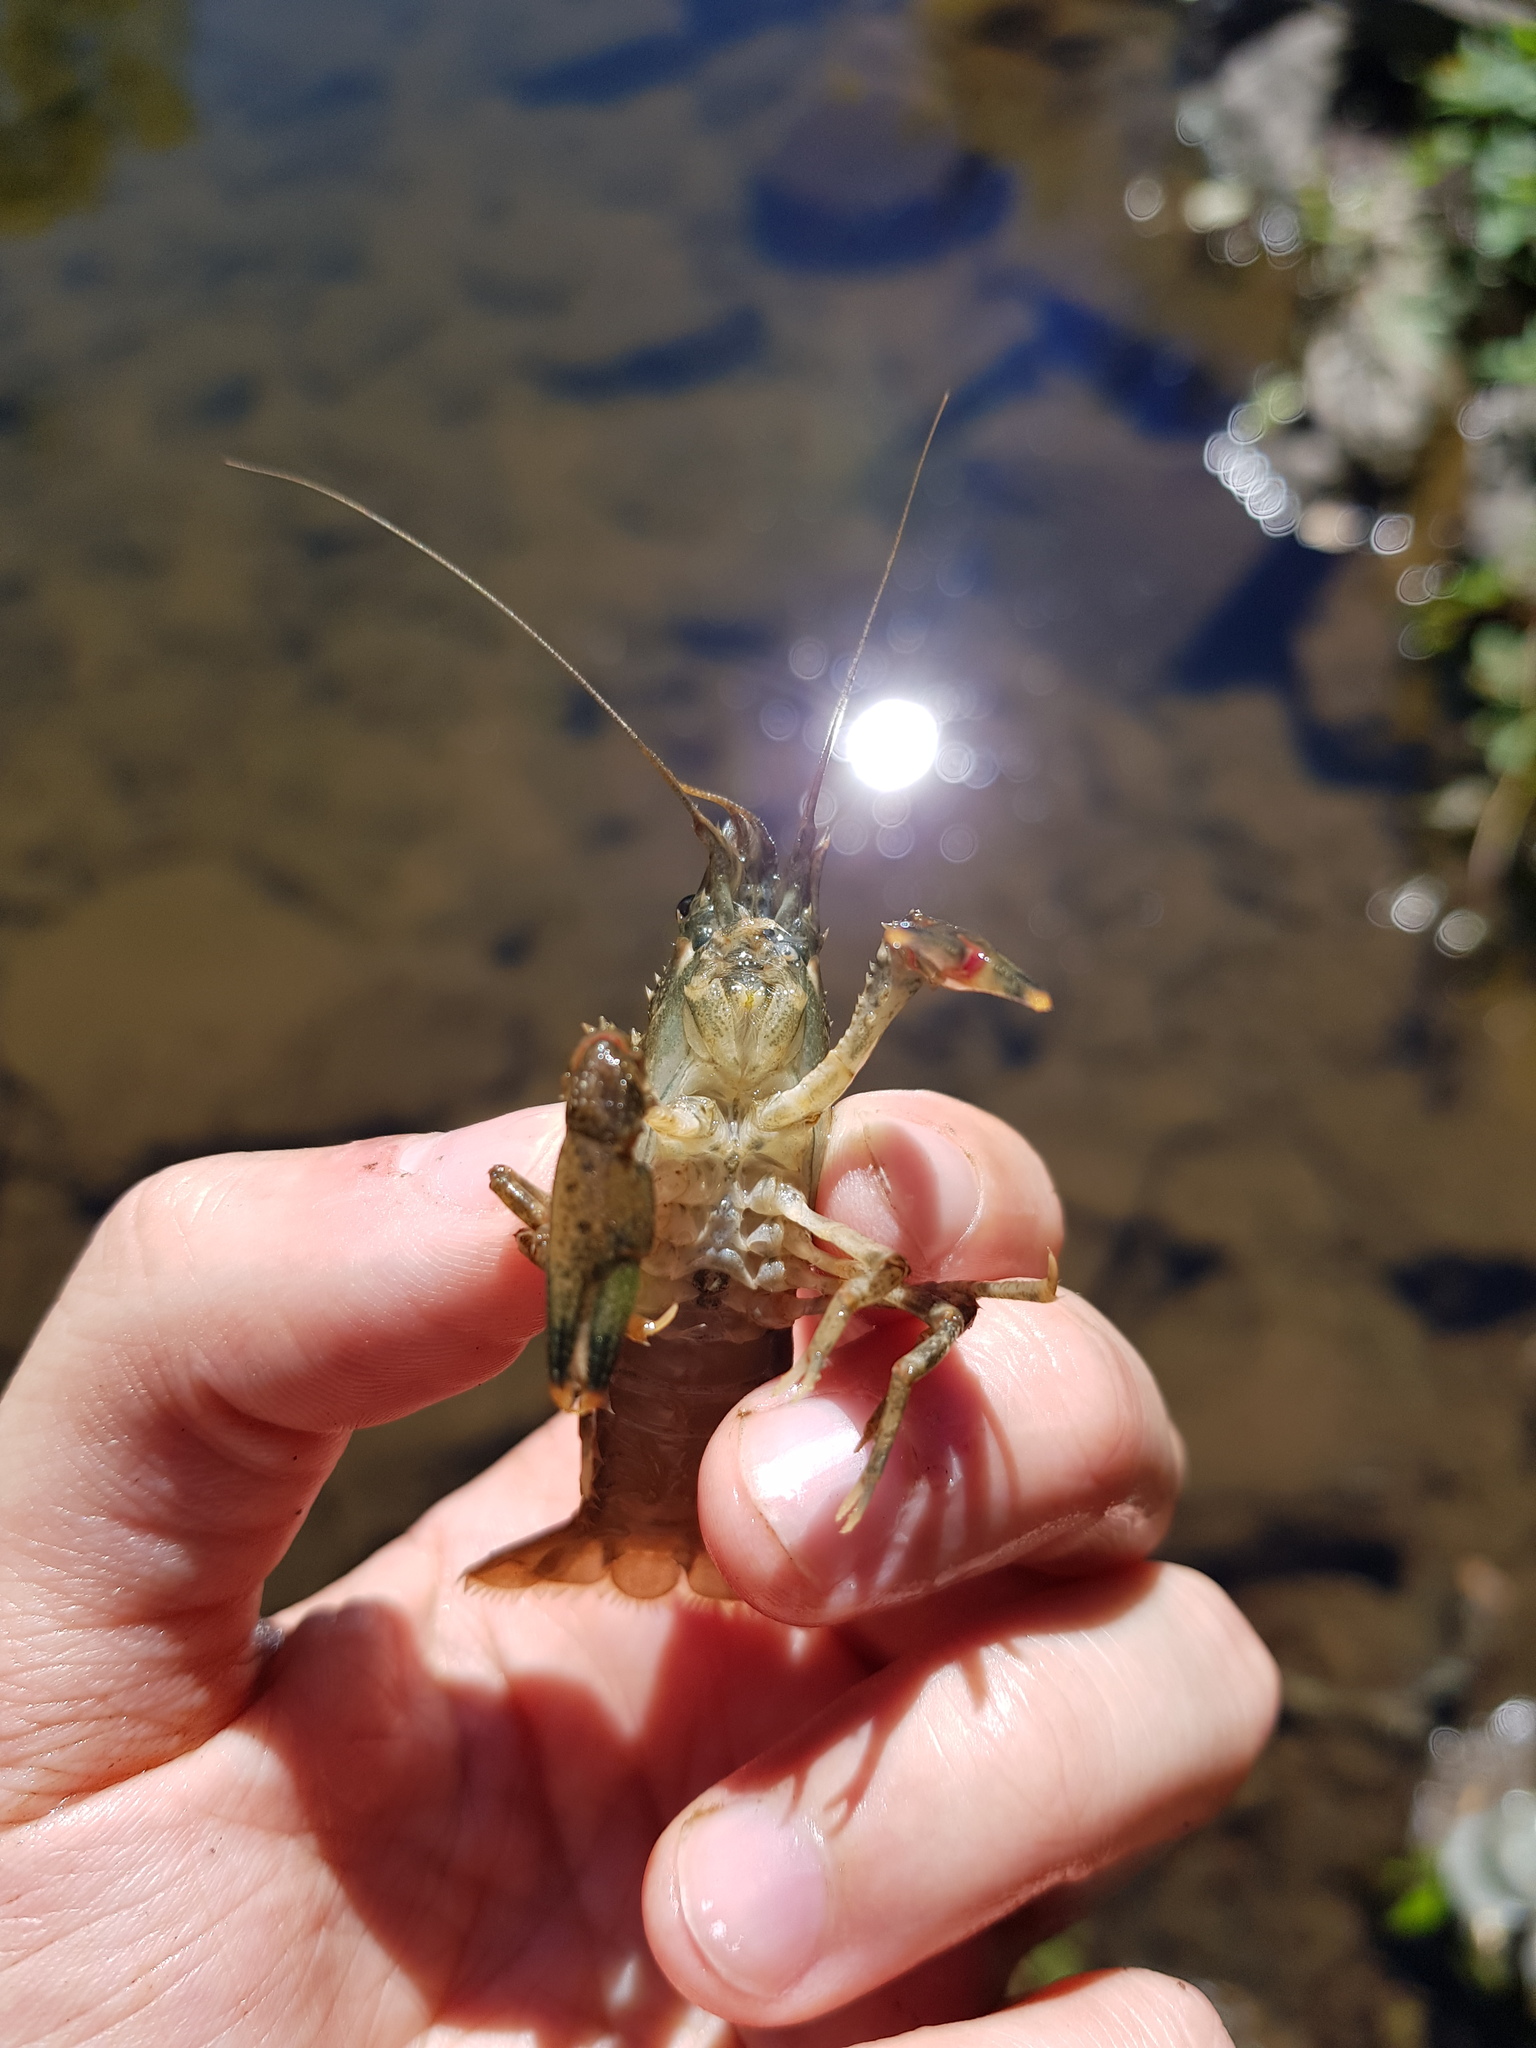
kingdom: Animalia
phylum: Arthropoda
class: Malacostraca
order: Decapoda
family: Cambaridae
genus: Faxonius
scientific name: Faxonius limosus
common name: American crayfish
